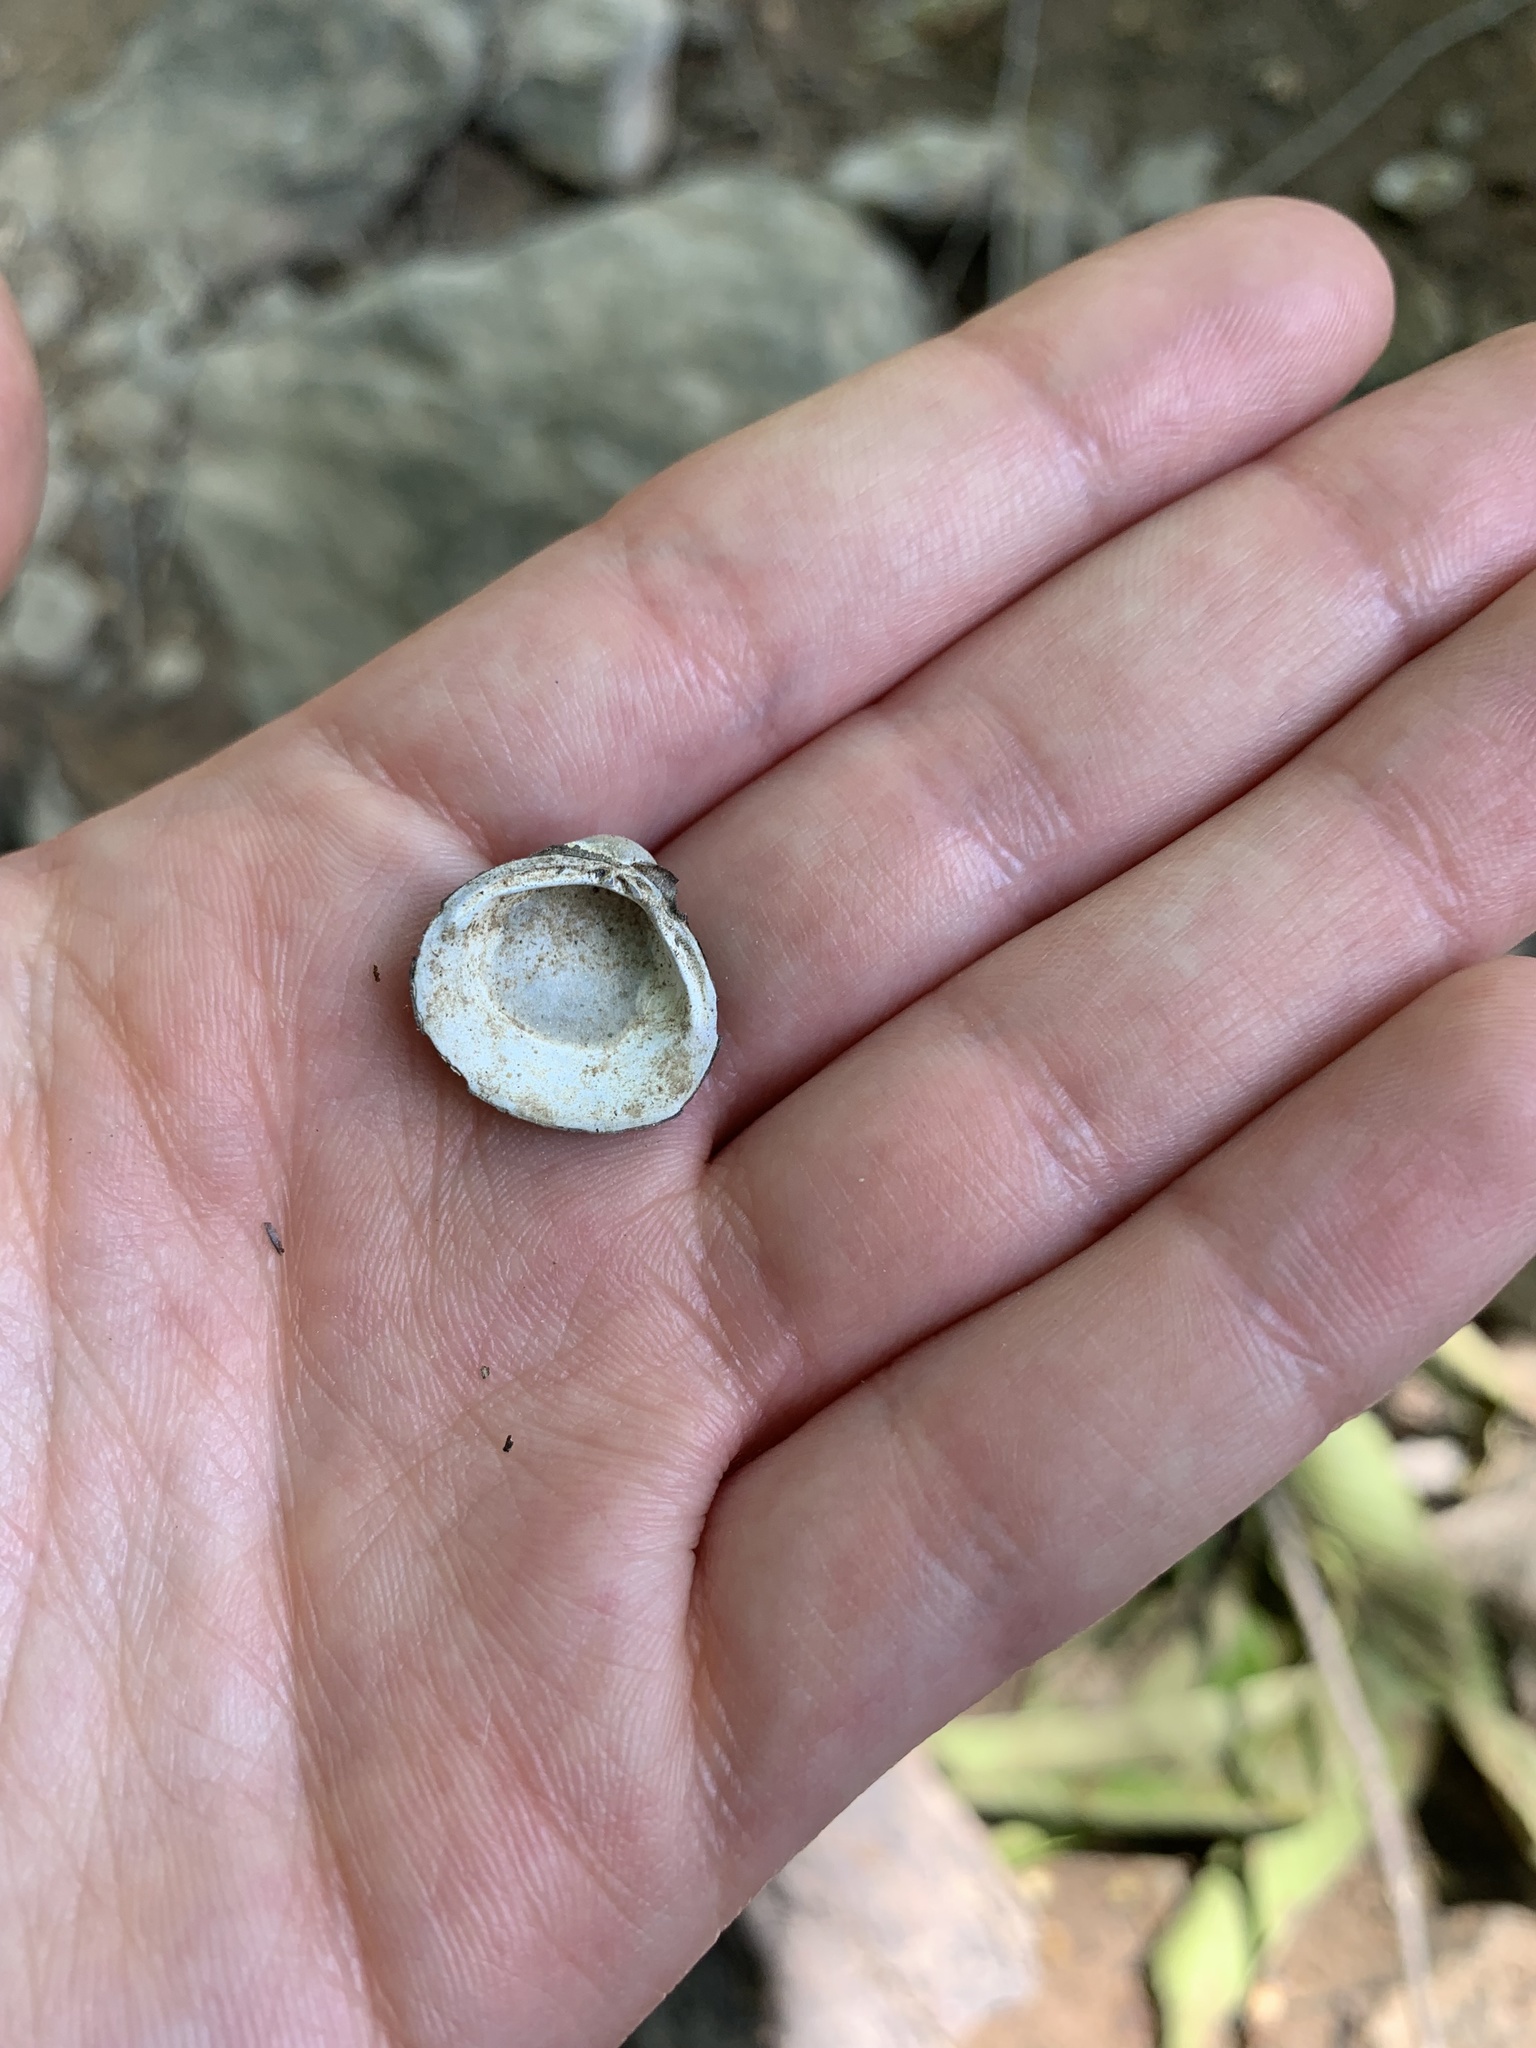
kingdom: Animalia
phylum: Mollusca
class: Bivalvia
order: Venerida
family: Cyrenidae
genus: Corbicula
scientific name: Corbicula fluminea
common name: Asian clam
